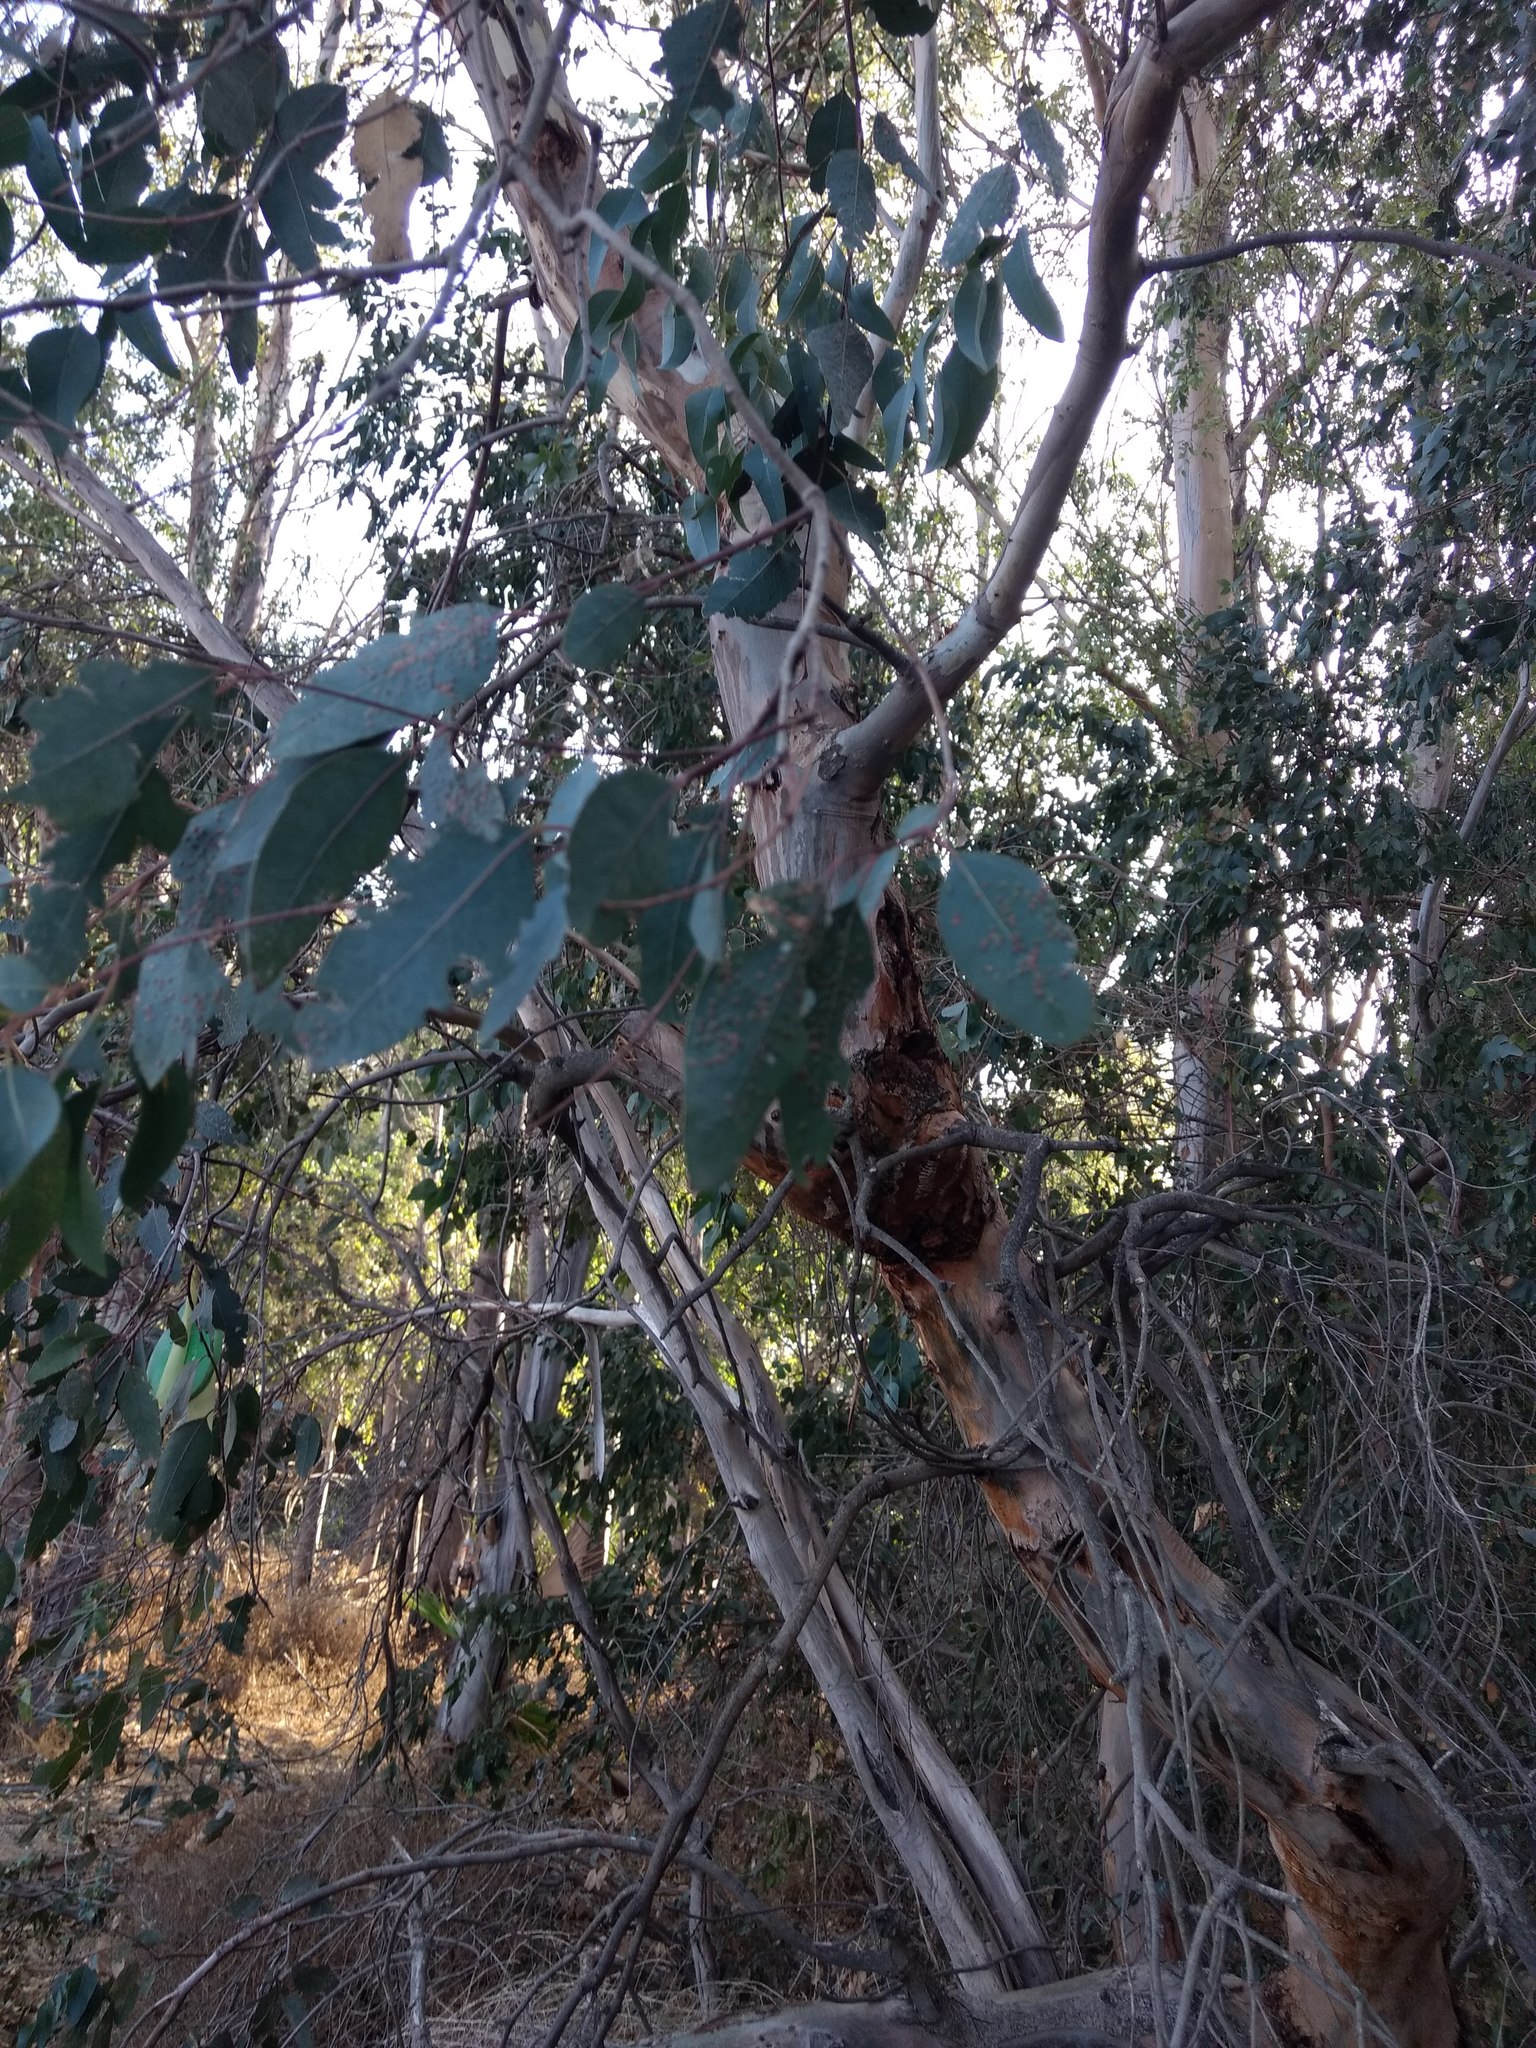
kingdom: Plantae
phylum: Tracheophyta
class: Magnoliopsida
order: Myrtales
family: Myrtaceae
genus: Eucalyptus
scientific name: Eucalyptus camaldulensis
